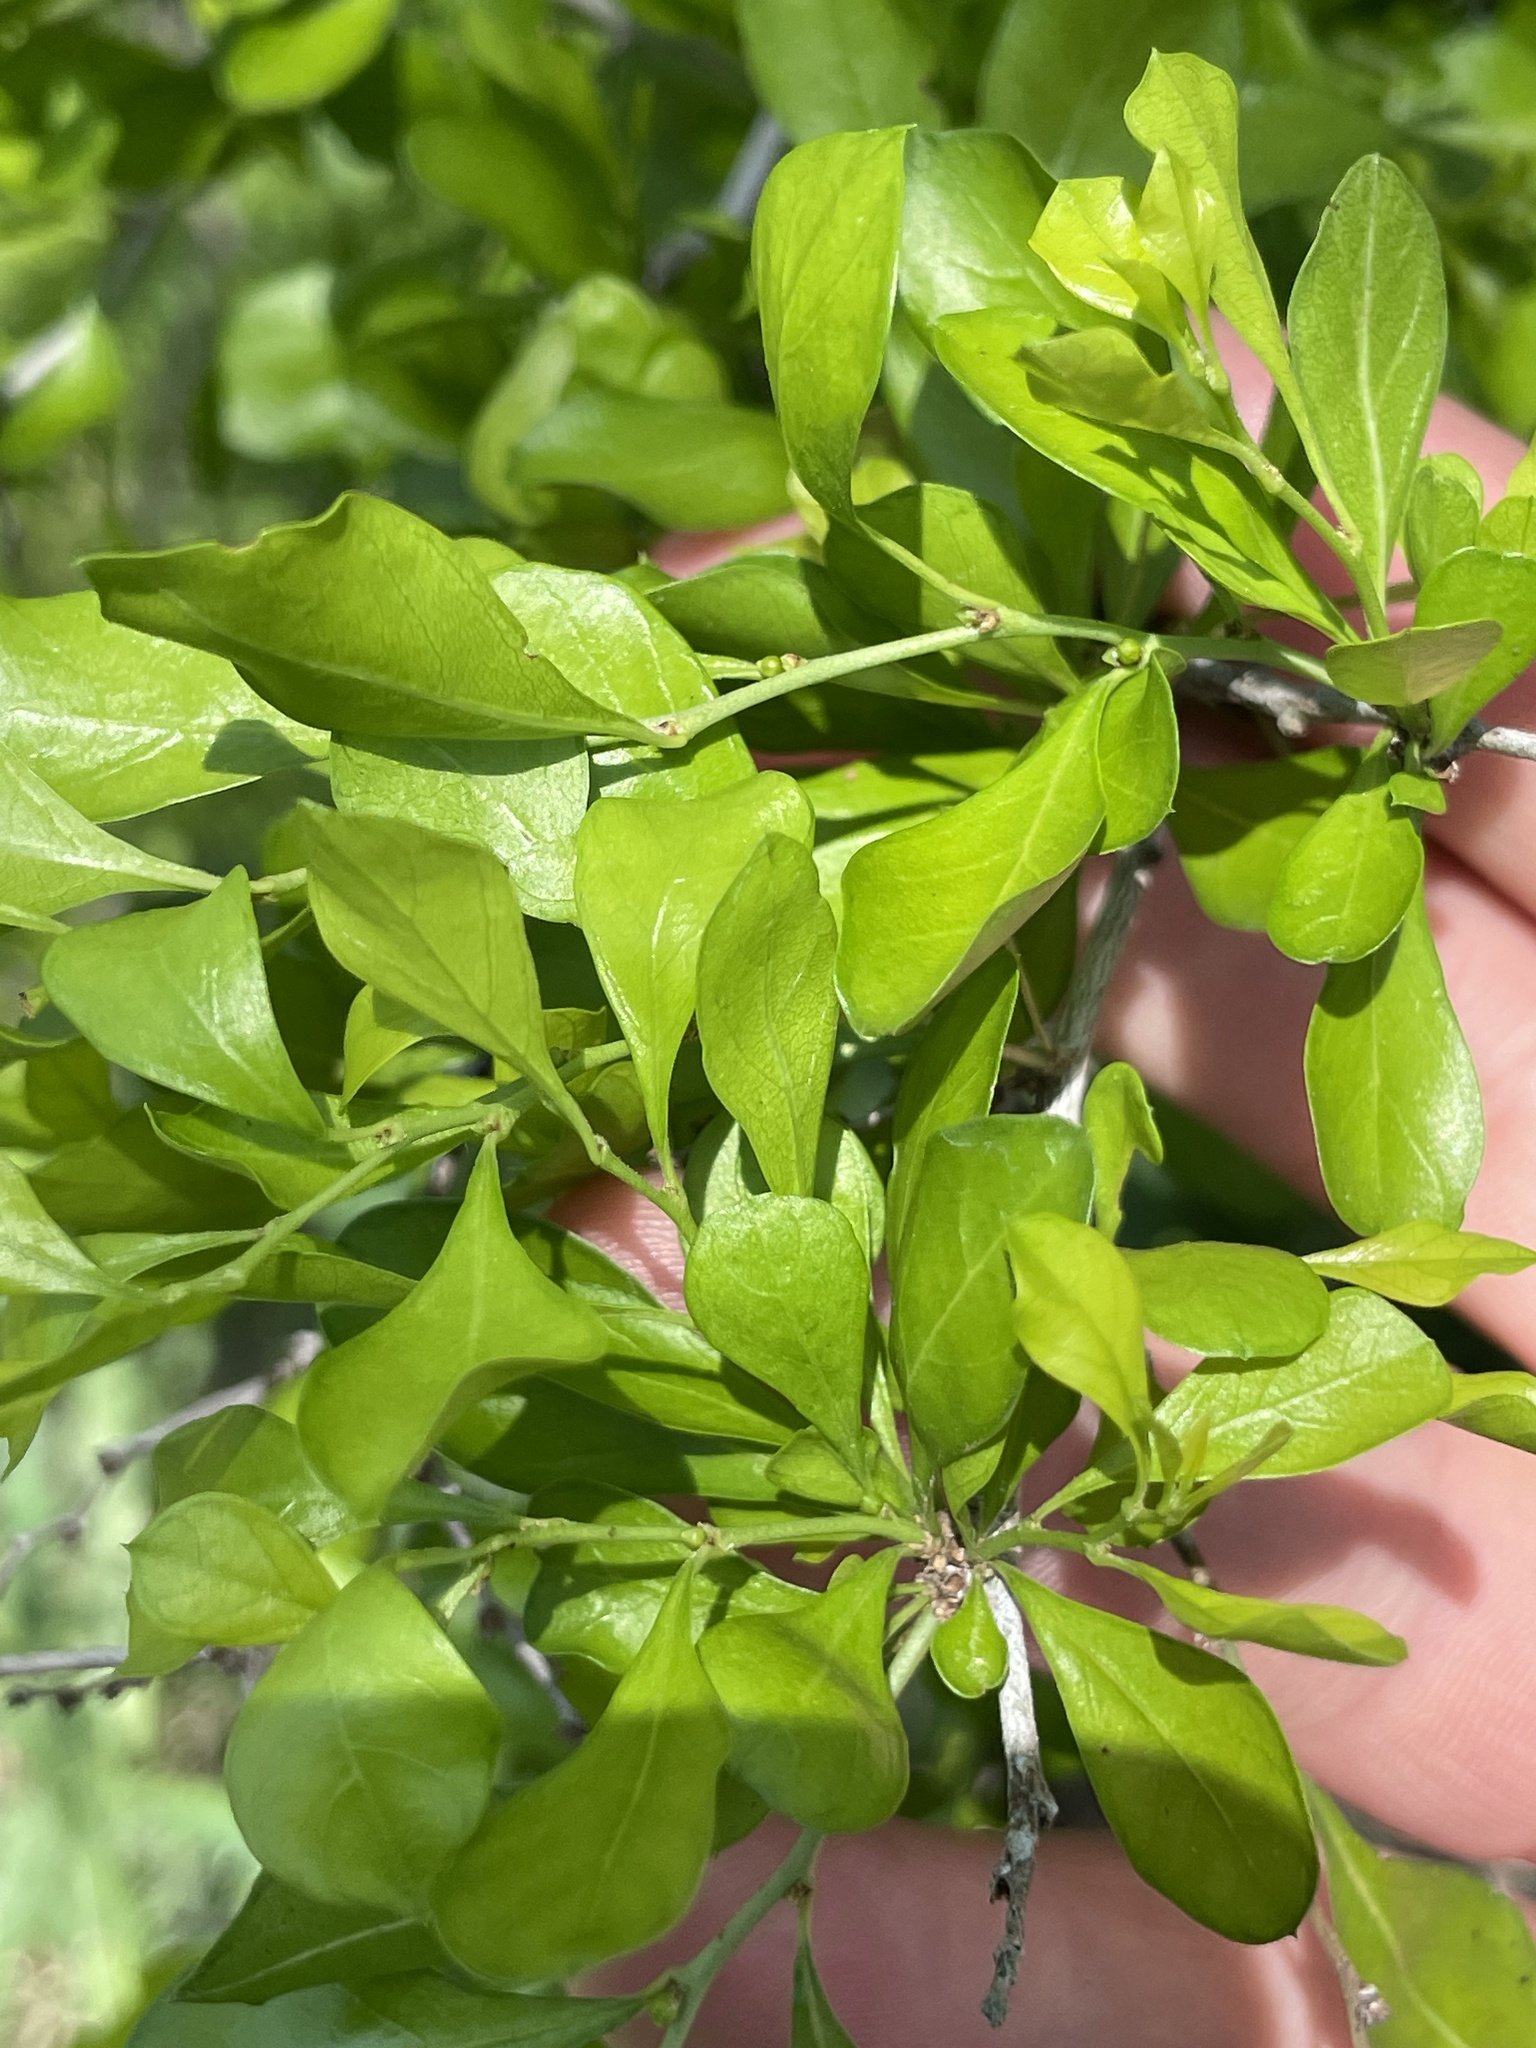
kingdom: Plantae
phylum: Tracheophyta
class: Magnoliopsida
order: Rosales
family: Rhamnaceae
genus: Condalia
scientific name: Condalia hookeri
